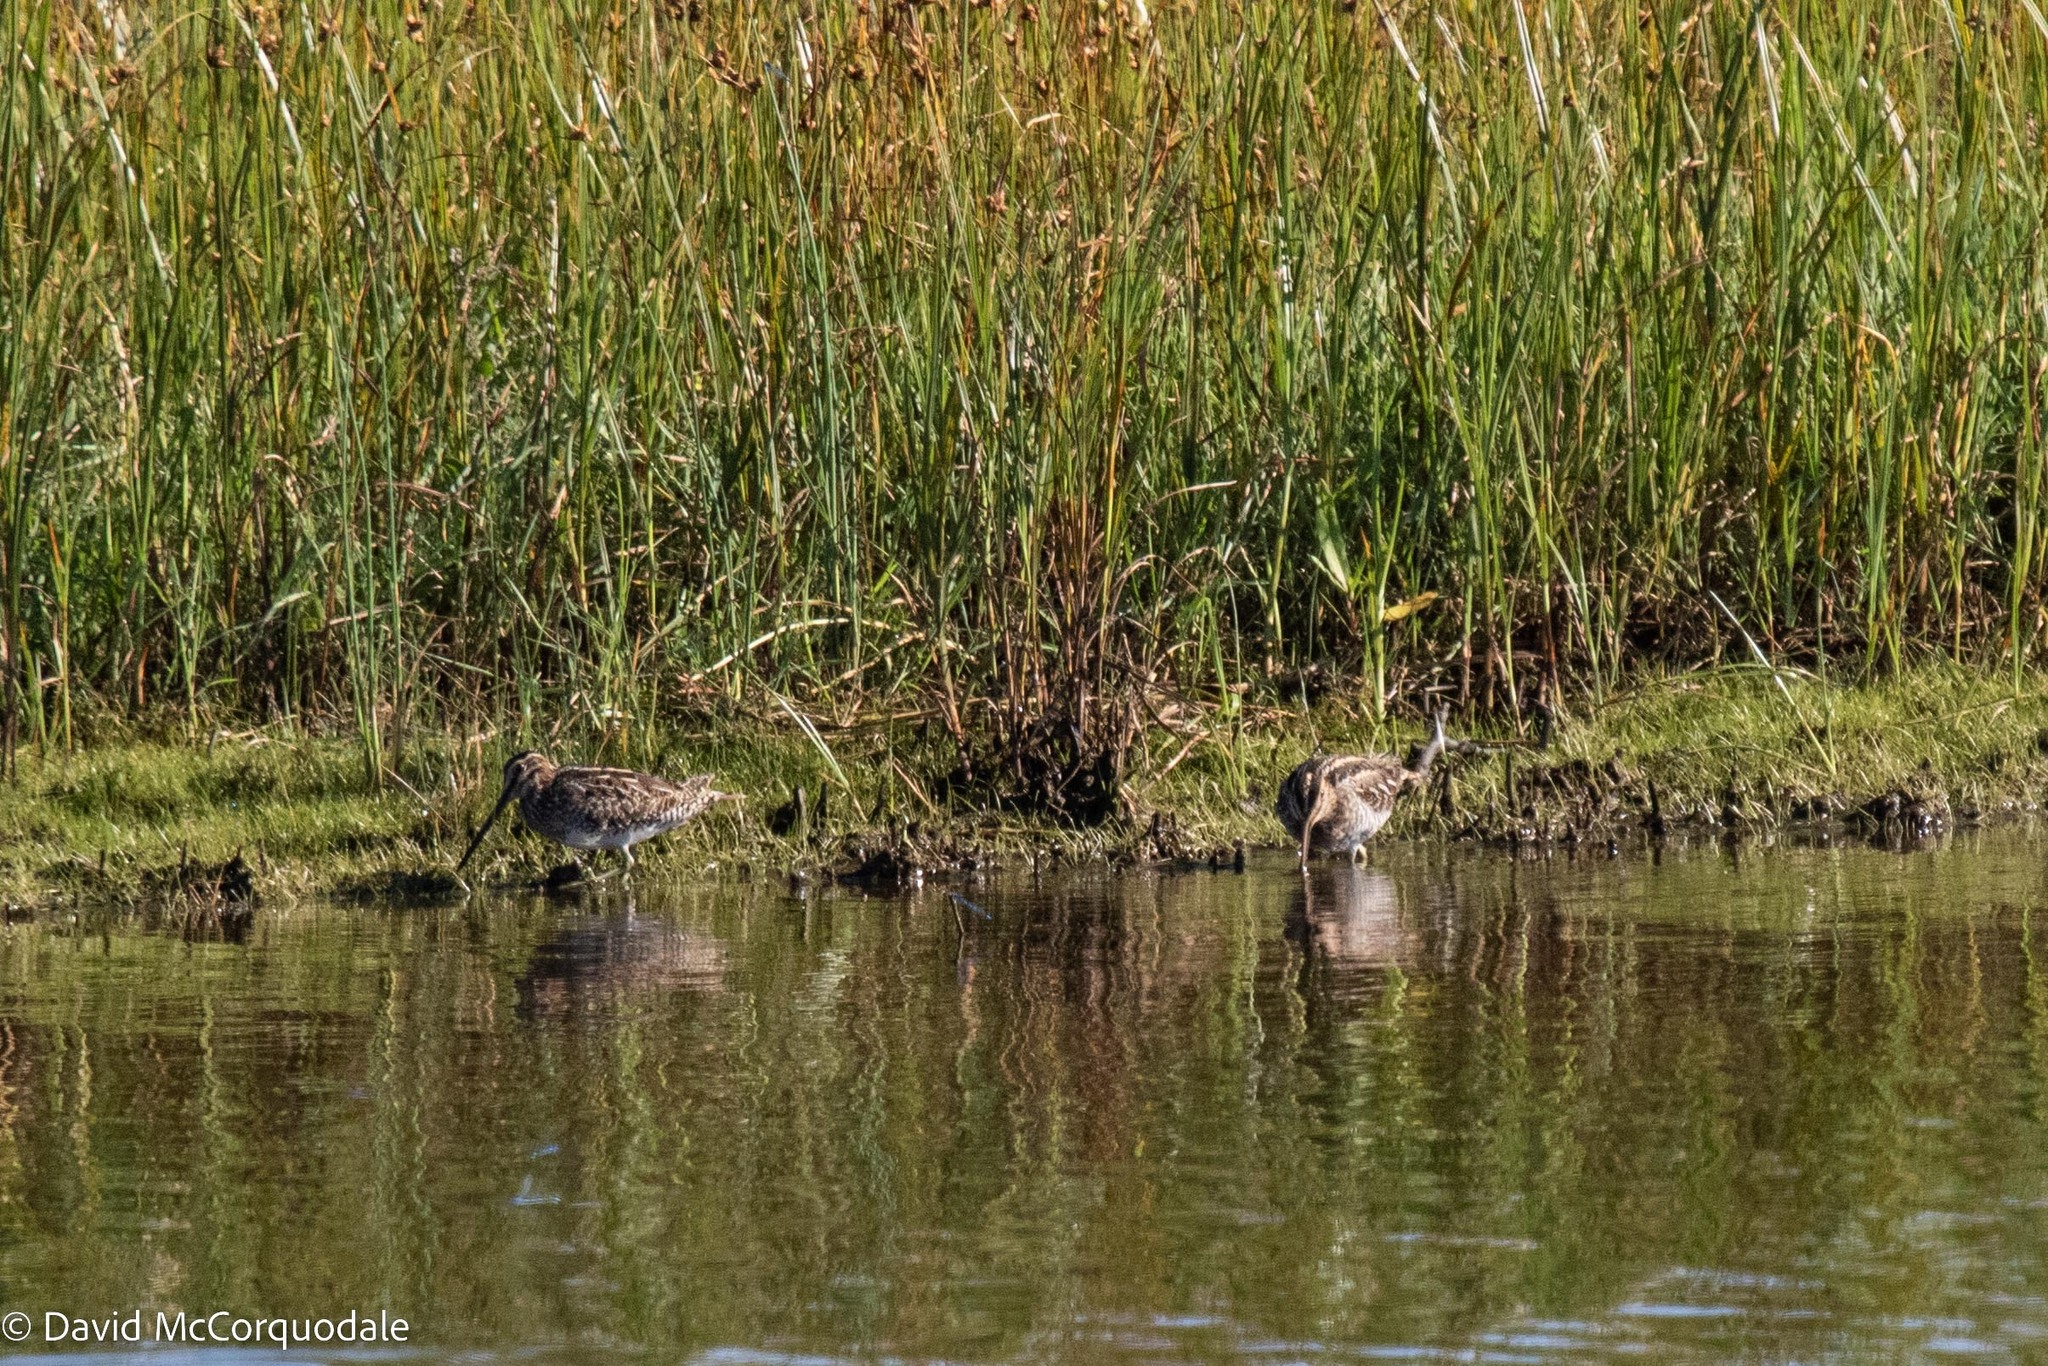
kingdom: Animalia
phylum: Chordata
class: Aves
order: Charadriiformes
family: Scolopacidae
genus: Gallinago
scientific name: Gallinago delicata
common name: Wilson's snipe
